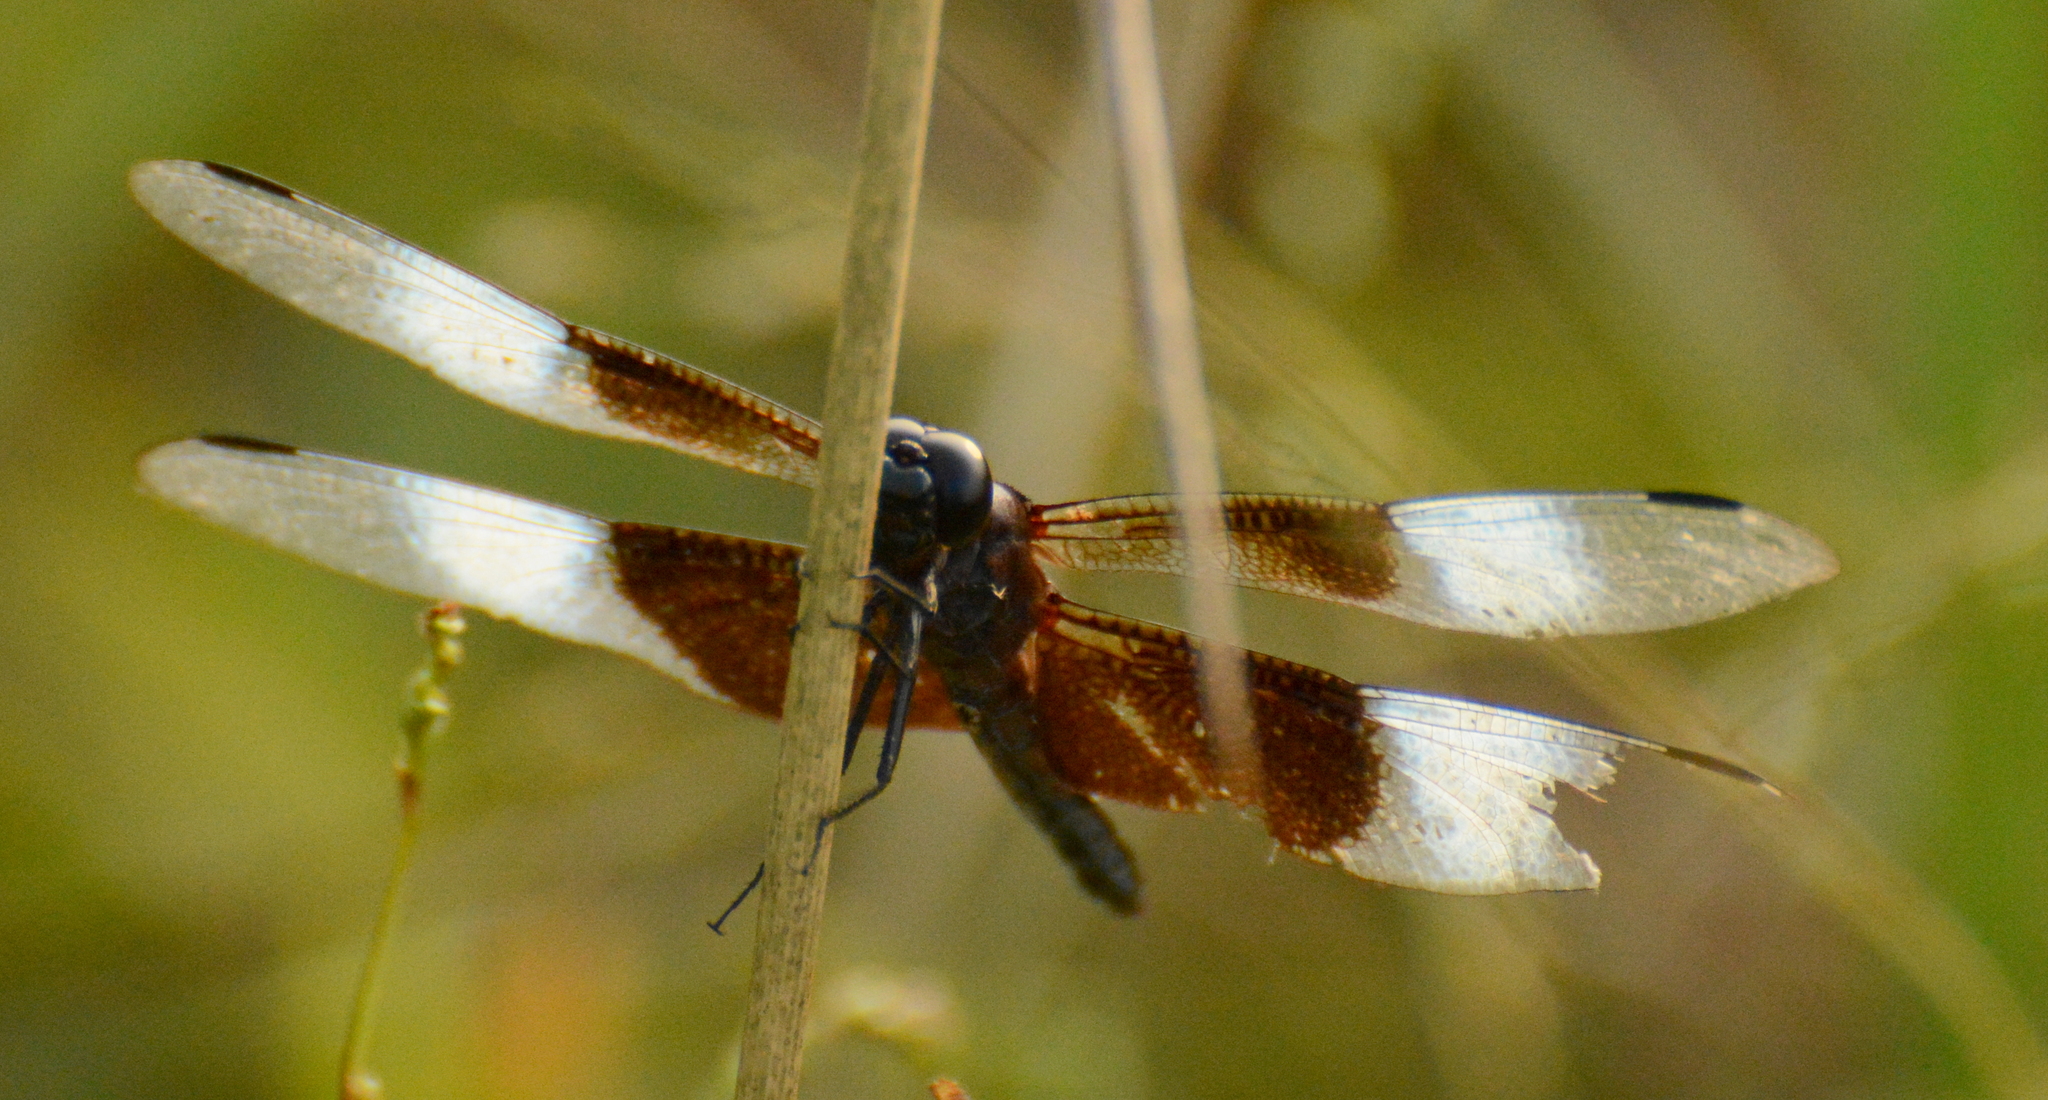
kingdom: Animalia
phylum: Arthropoda
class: Insecta
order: Odonata
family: Libellulidae
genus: Libellula
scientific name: Libellula luctuosa
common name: Widow skimmer
